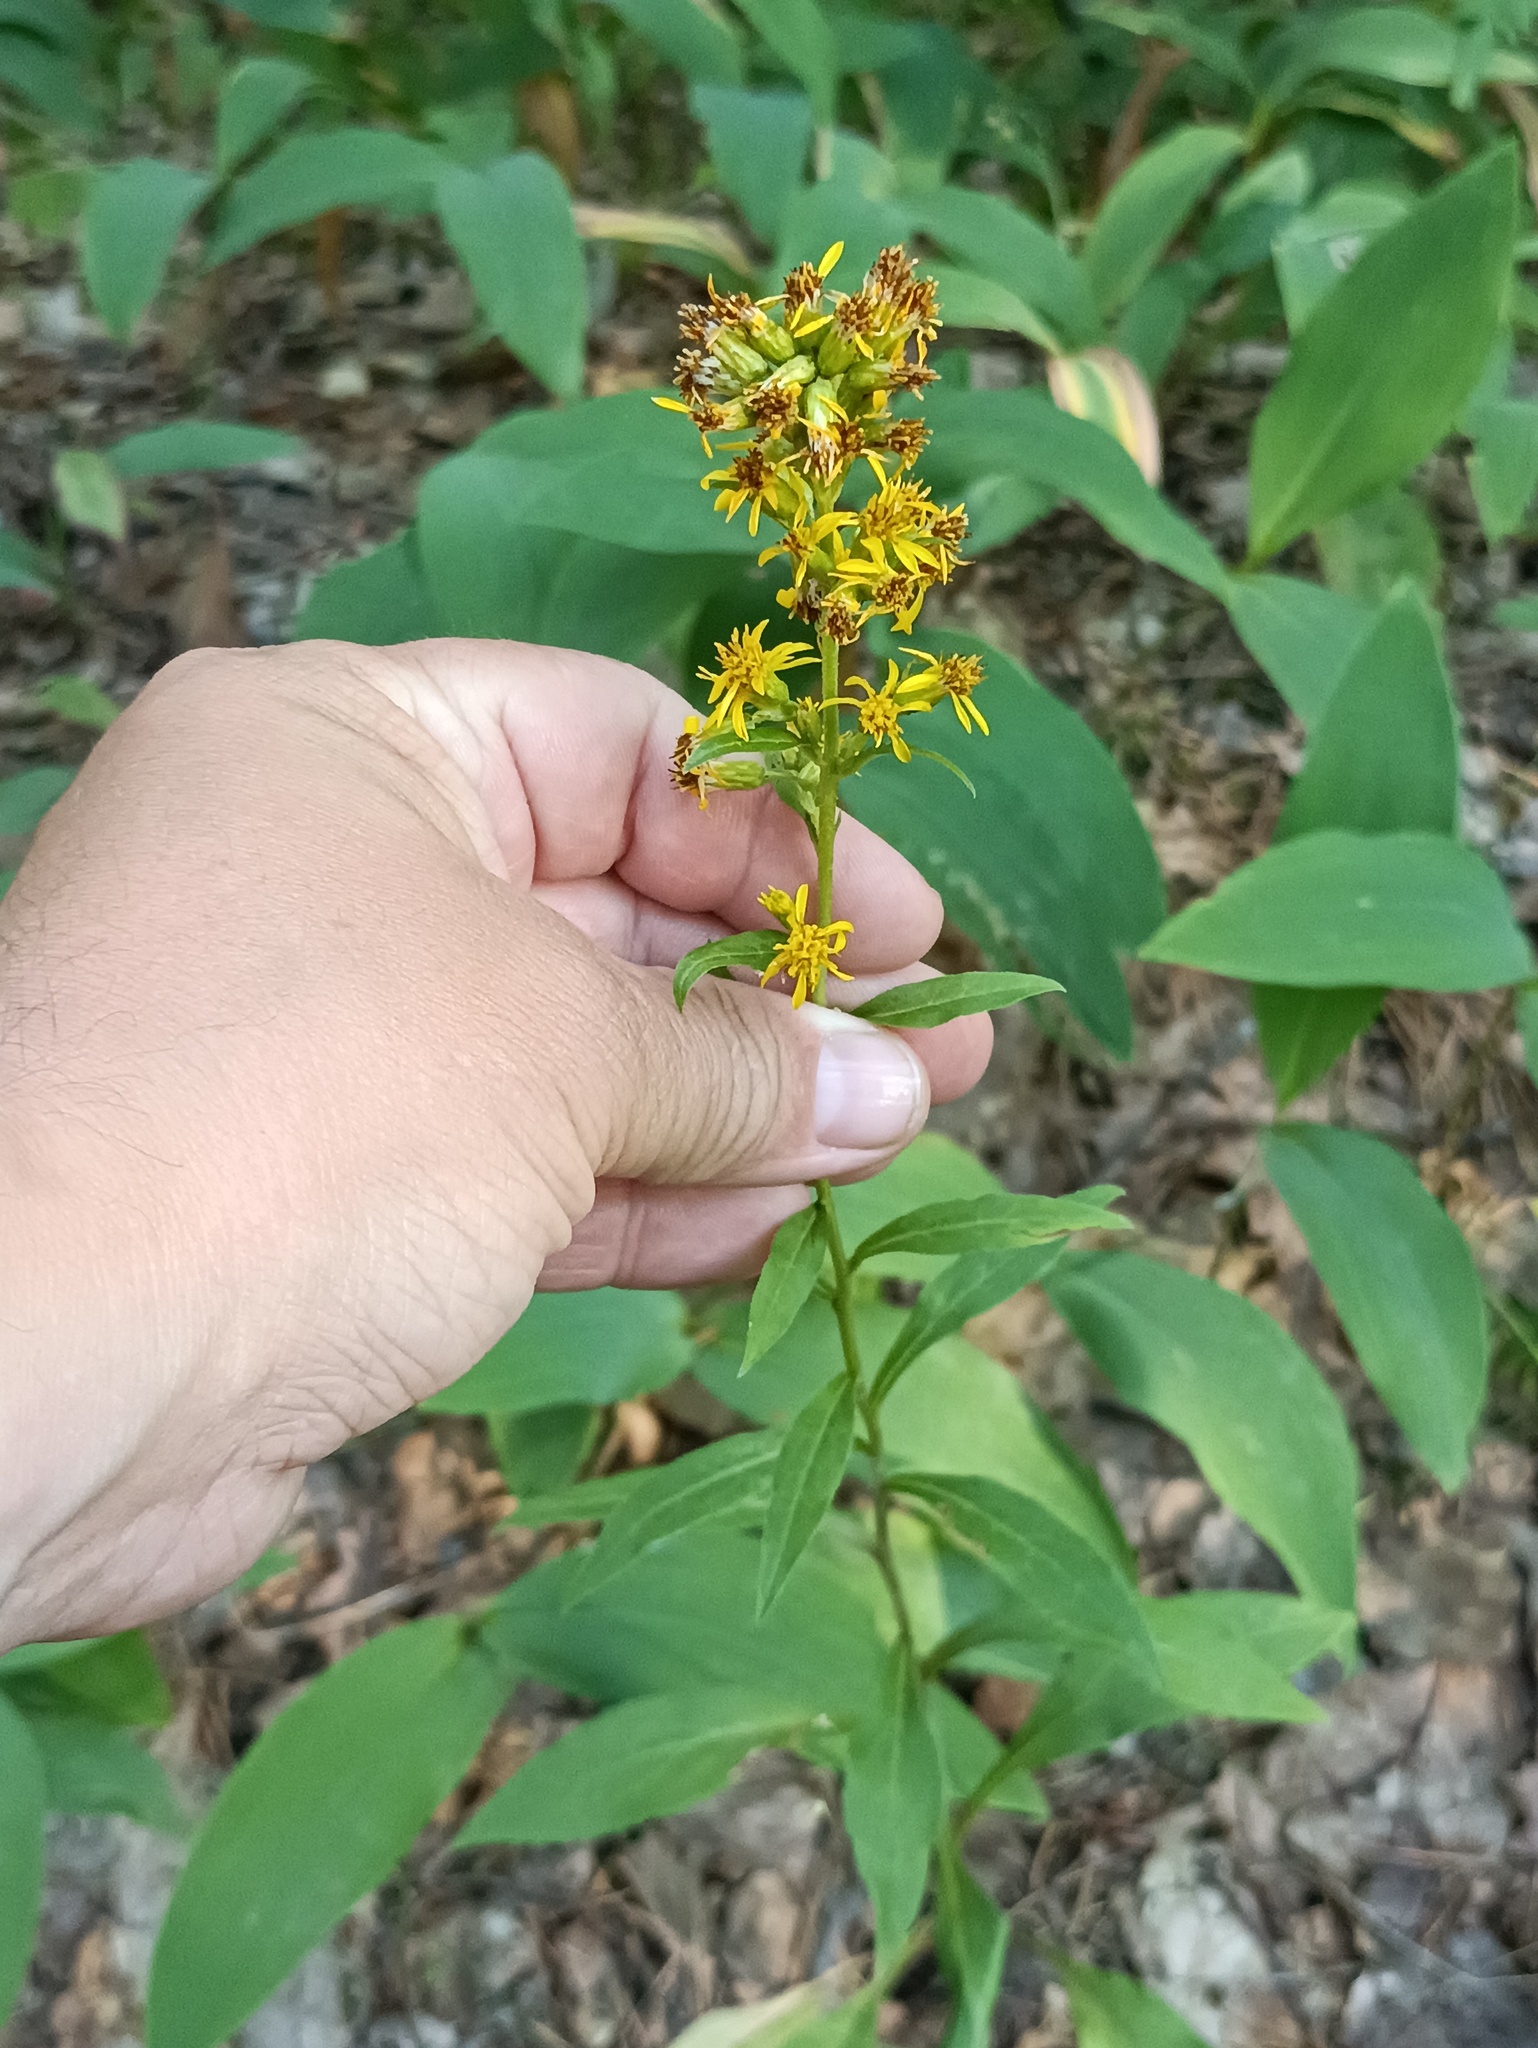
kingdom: Plantae
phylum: Tracheophyta
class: Magnoliopsida
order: Asterales
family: Asteraceae
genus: Solidago
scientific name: Solidago virgaurea
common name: Goldenrod
